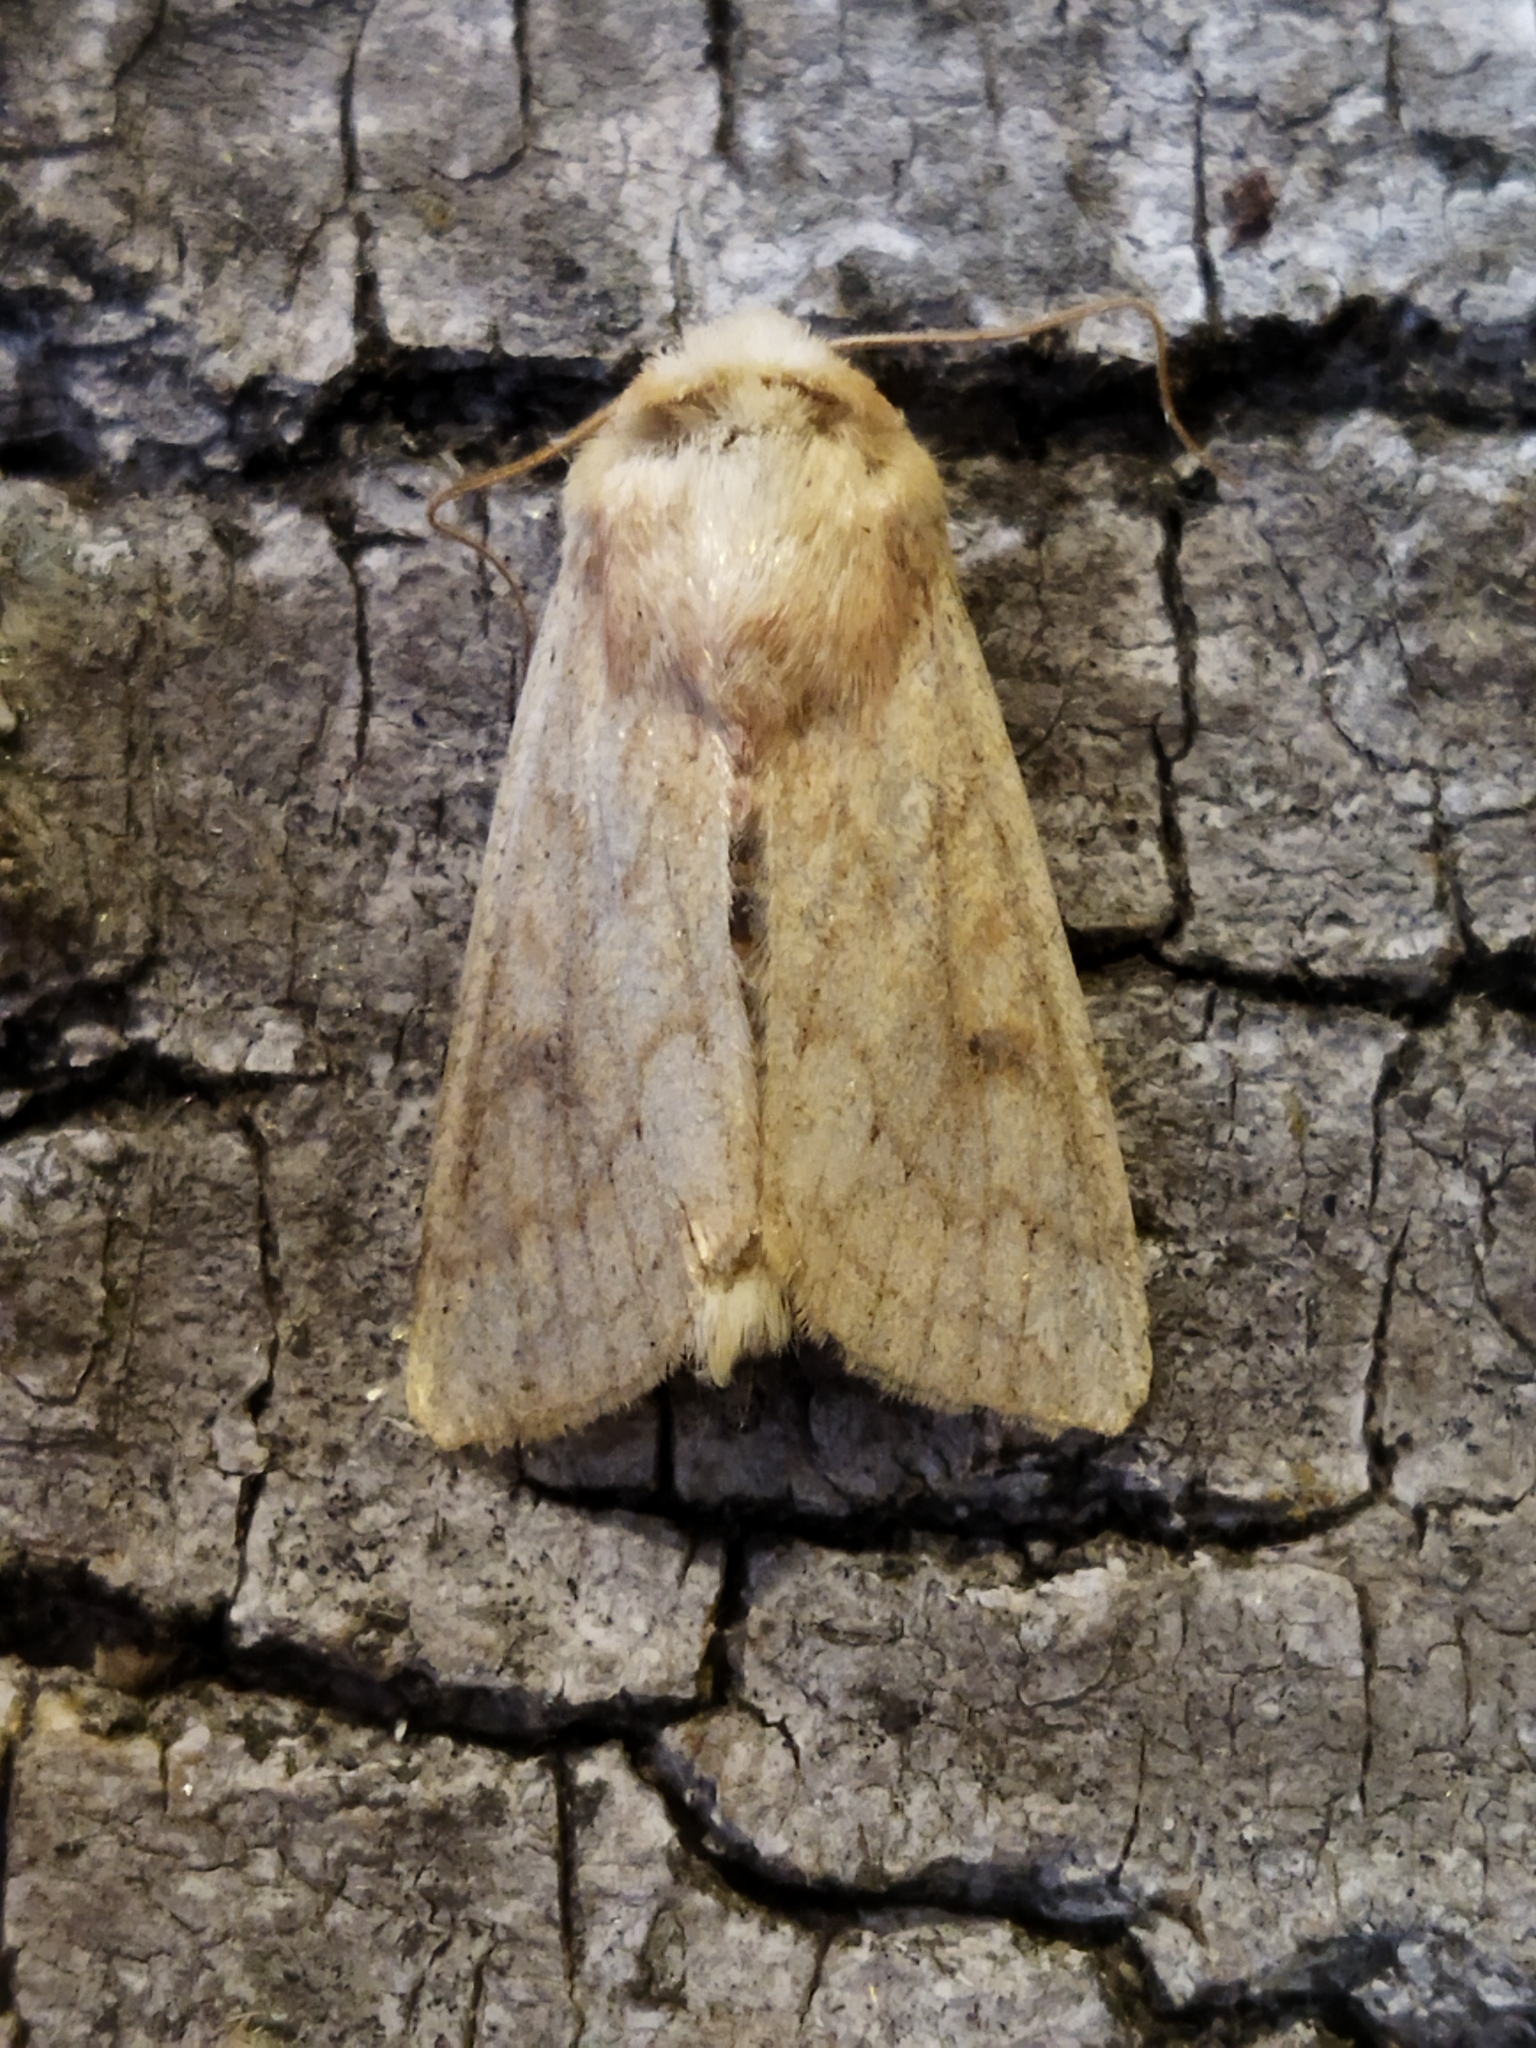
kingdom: Animalia
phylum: Arthropoda
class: Insecta
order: Lepidoptera
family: Noctuidae
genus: Mythimna
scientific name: Mythimna vitellina
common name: Delicate
